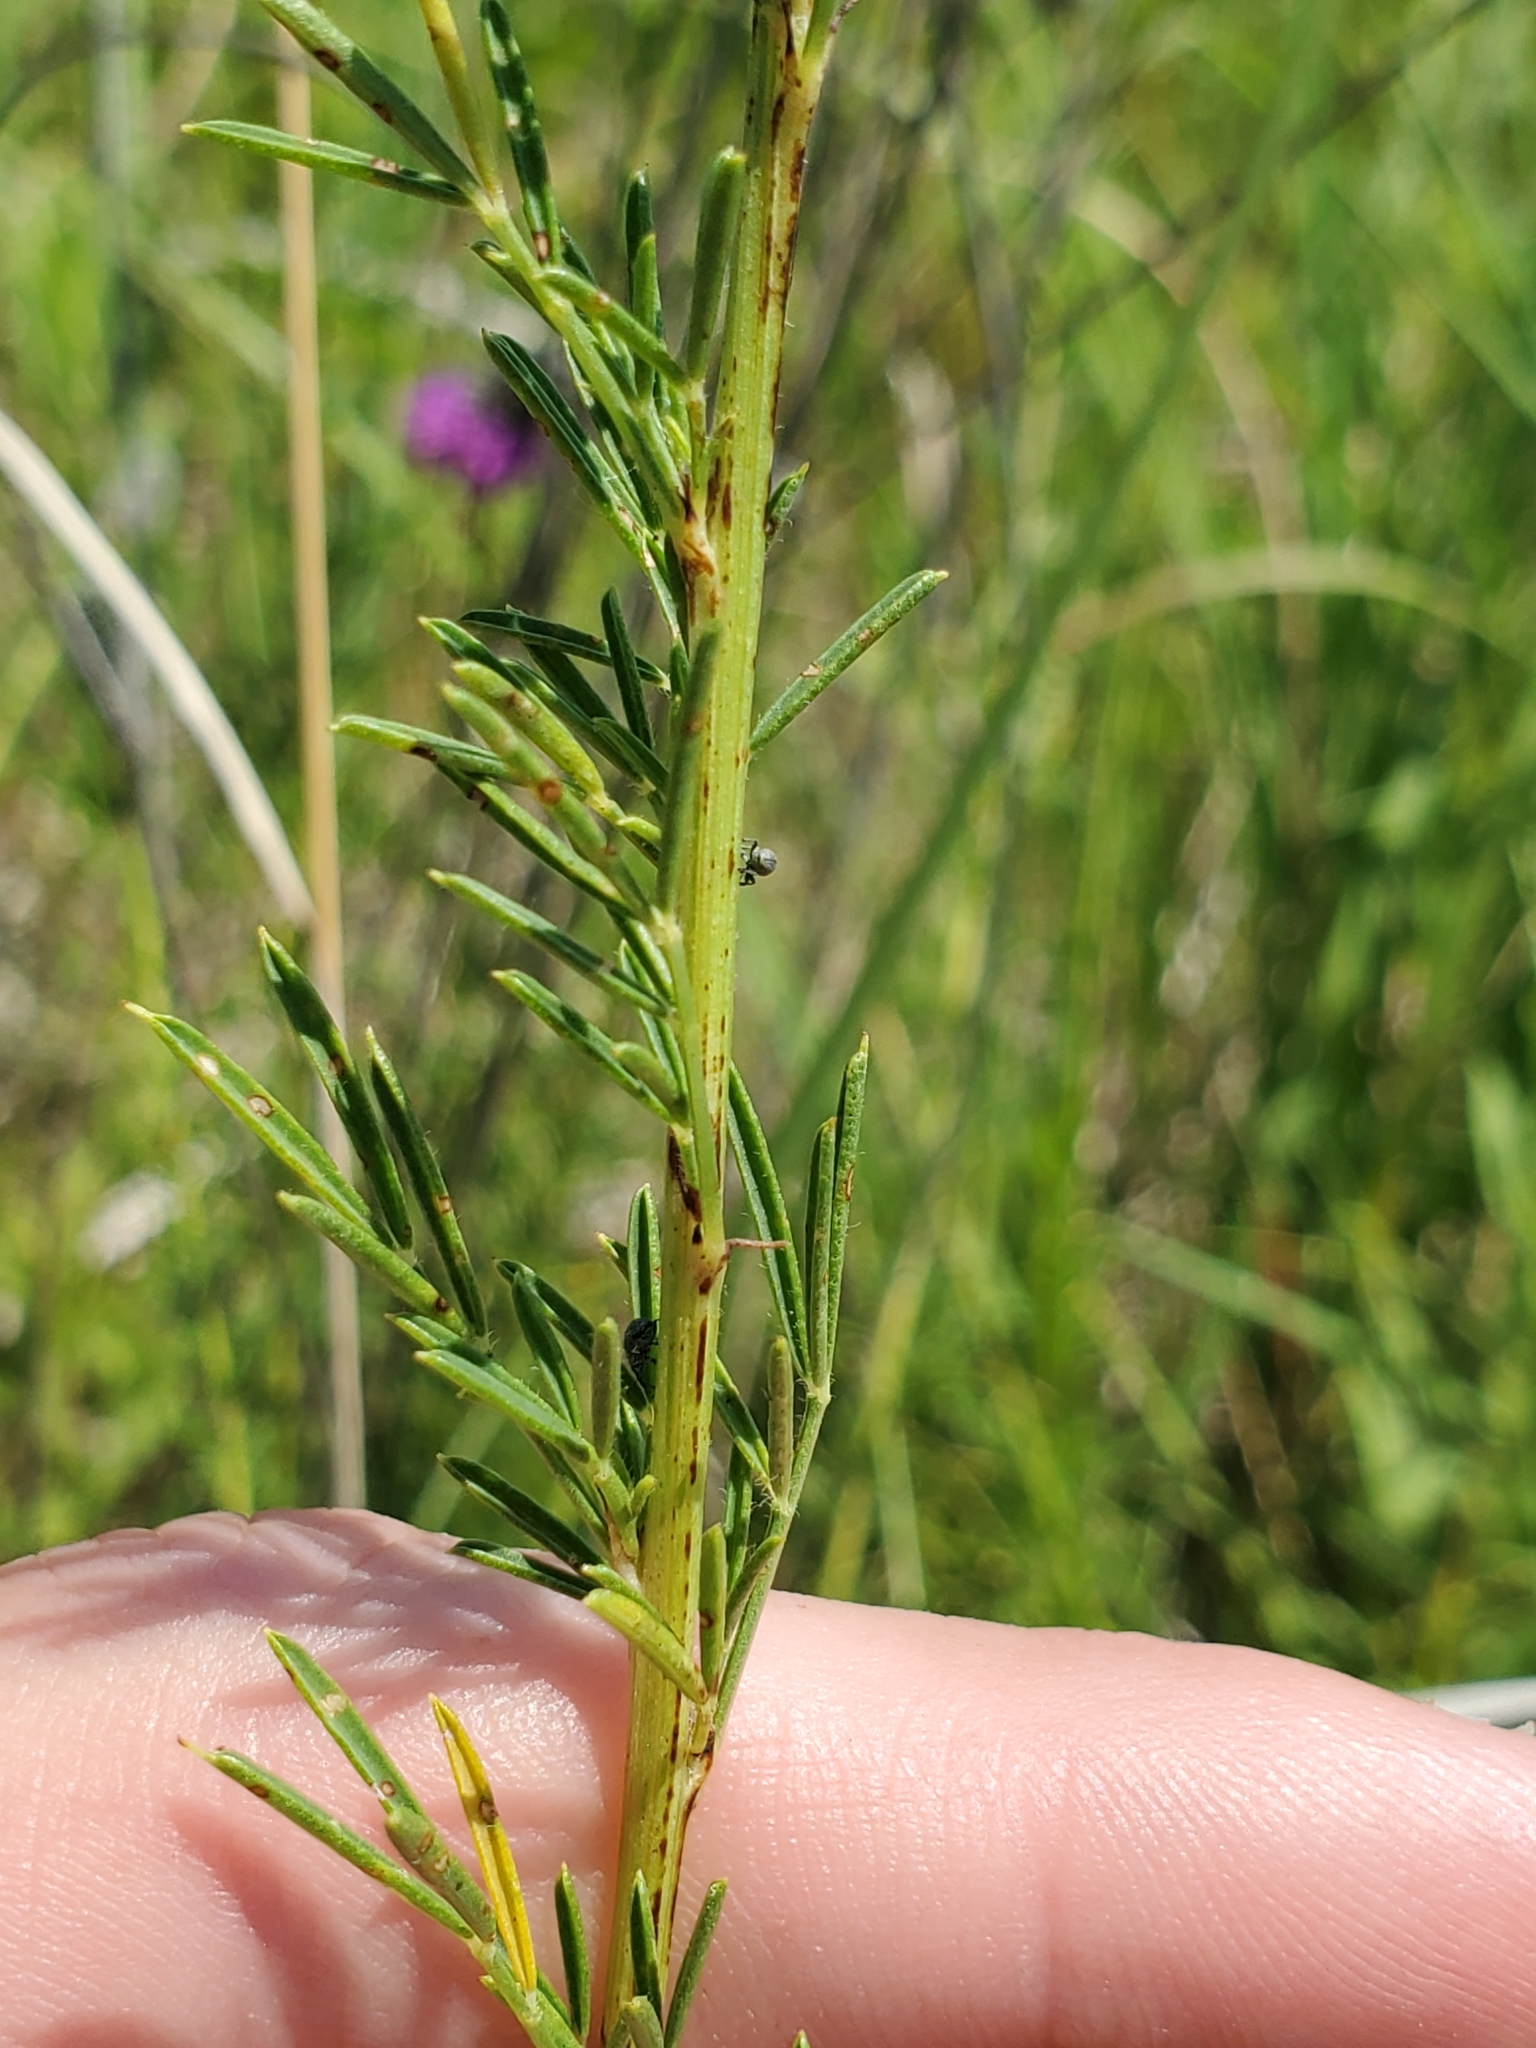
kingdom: Plantae
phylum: Tracheophyta
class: Magnoliopsida
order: Fabales
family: Fabaceae
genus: Dalea
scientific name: Dalea purpurea
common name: Purple prairie-clover
